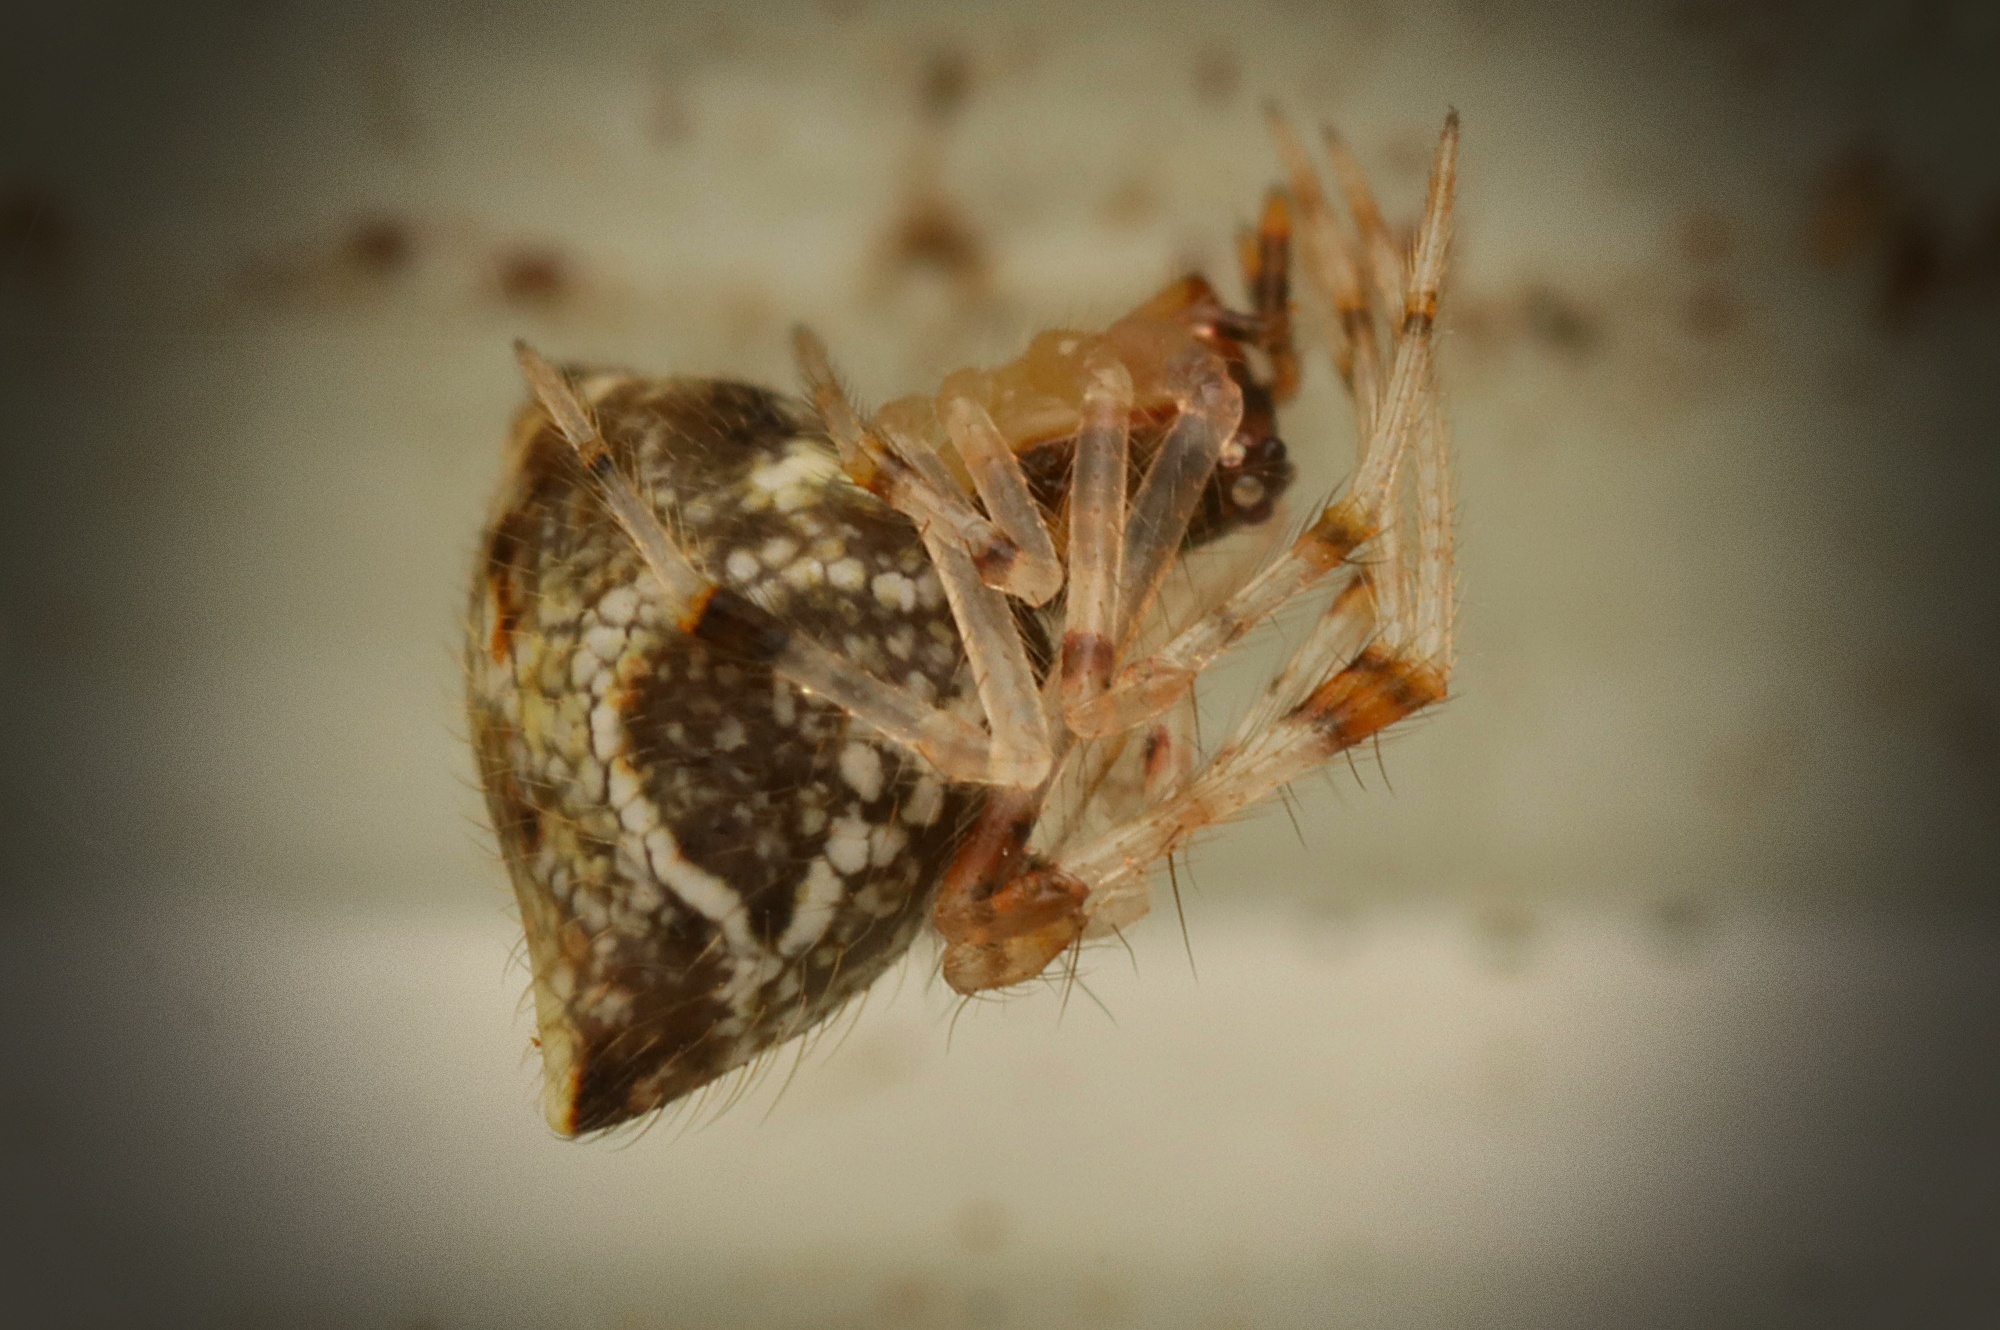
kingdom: Animalia
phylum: Arthropoda
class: Arachnida
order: Araneae
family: Theridiidae
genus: Cryptachaea
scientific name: Cryptachaea meraukensis
